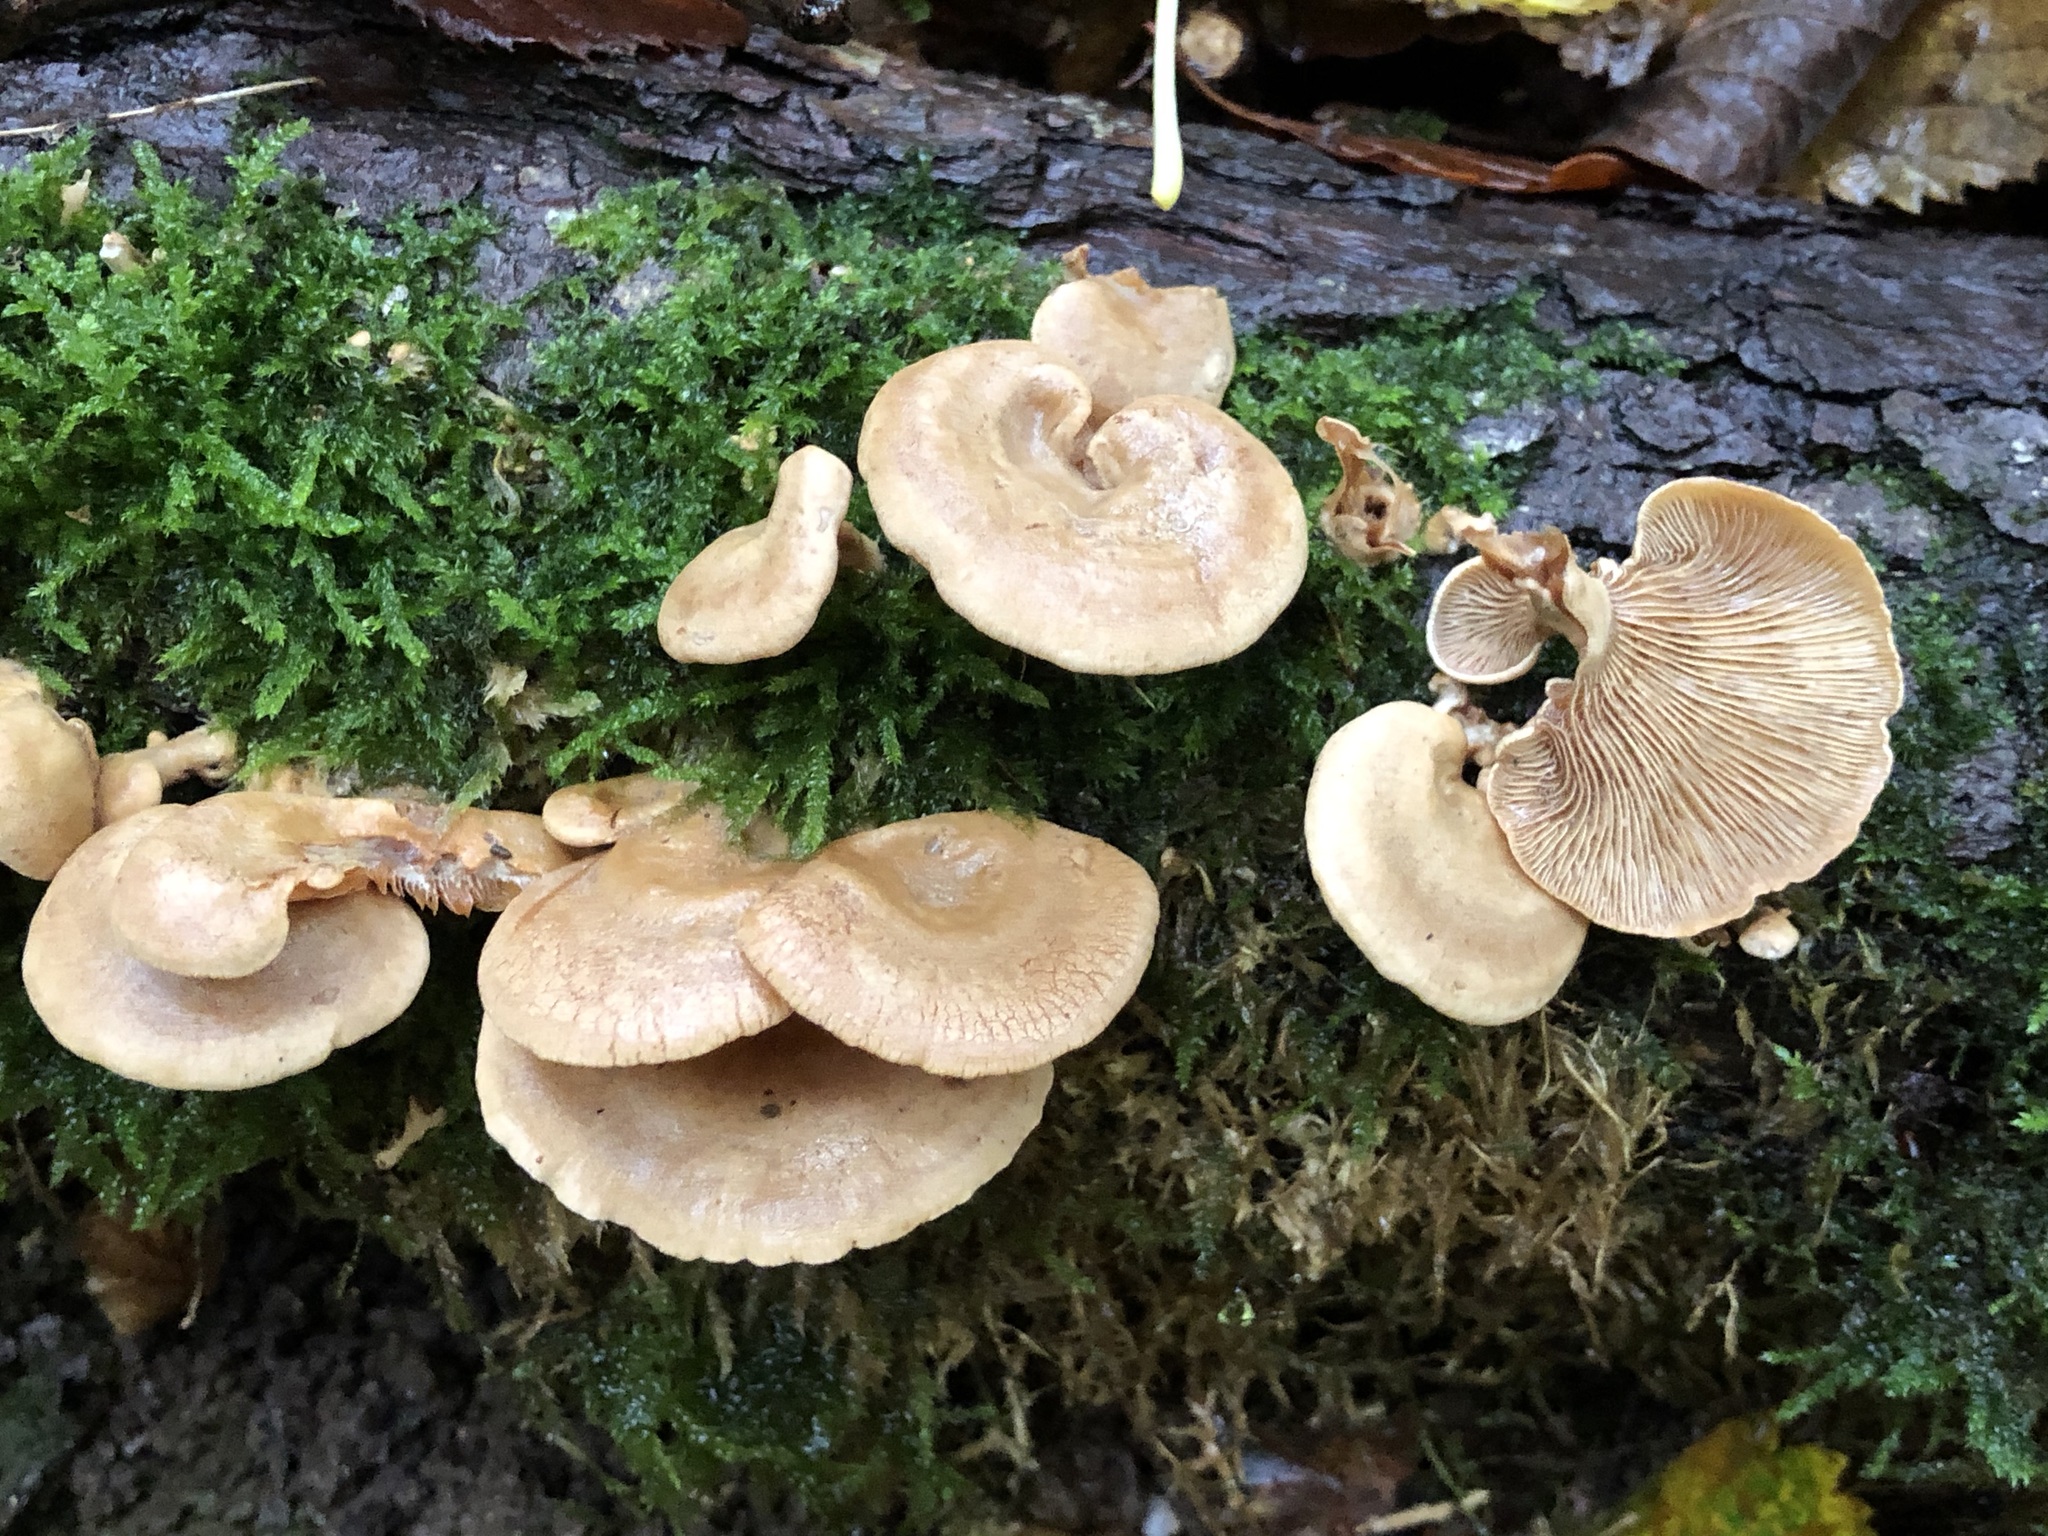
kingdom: Fungi
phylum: Basidiomycota
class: Agaricomycetes
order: Agaricales
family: Mycenaceae
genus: Panellus
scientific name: Panellus stipticus
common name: Bitter oysterling
